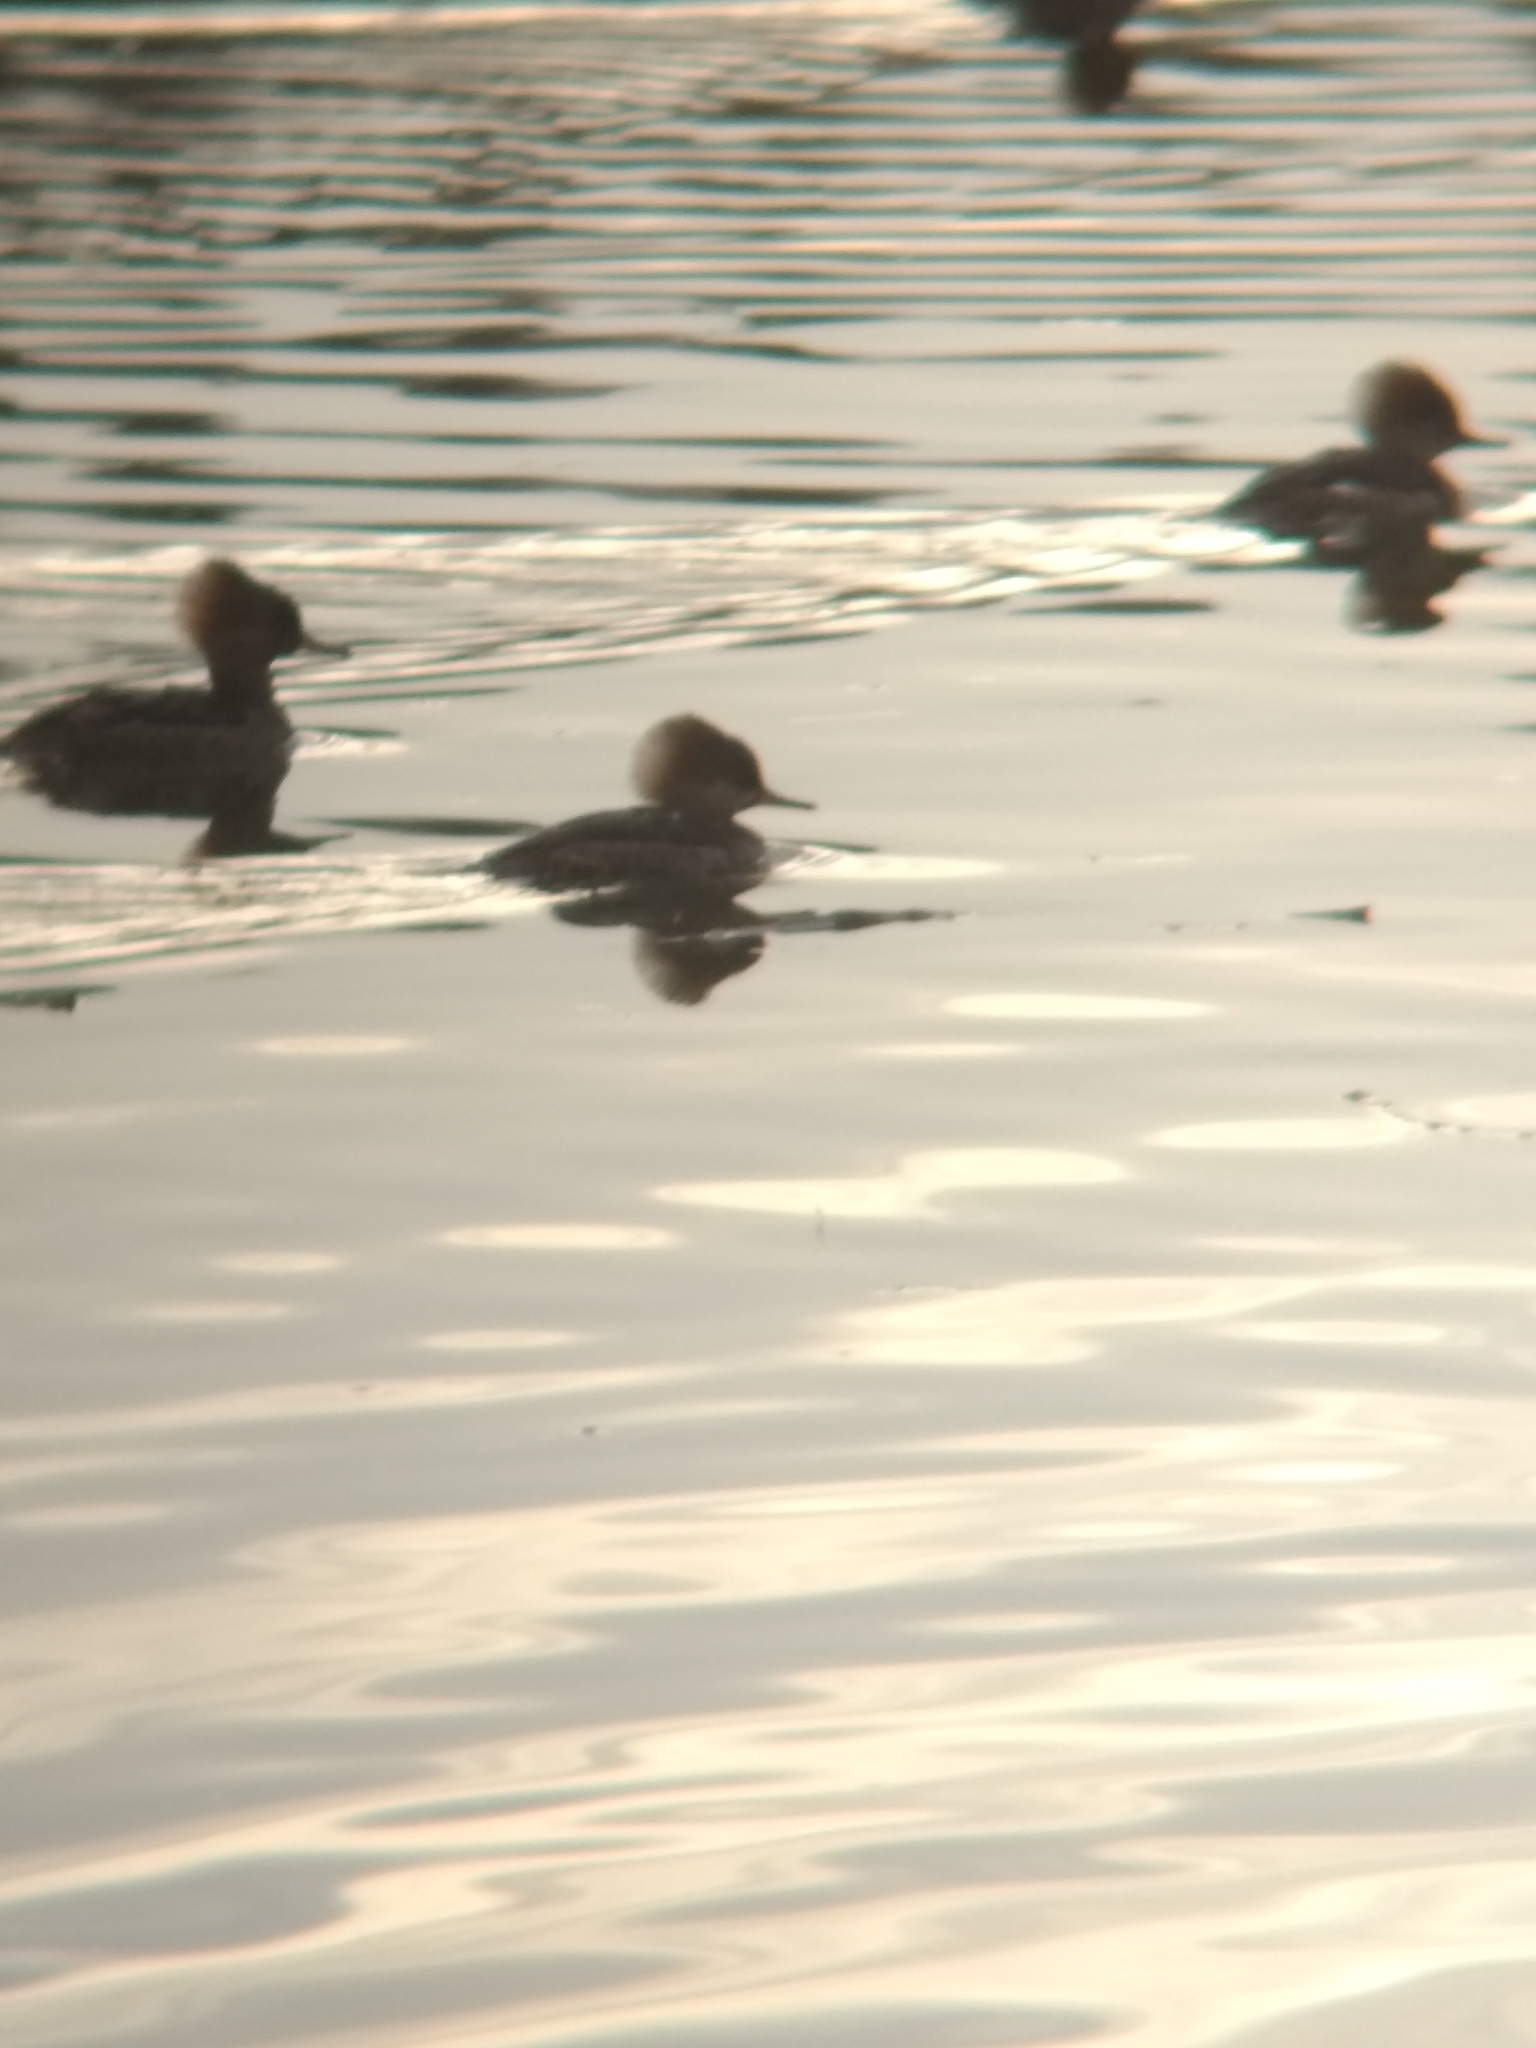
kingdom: Animalia
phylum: Chordata
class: Aves
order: Anseriformes
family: Anatidae
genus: Lophodytes
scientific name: Lophodytes cucullatus
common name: Hooded merganser
